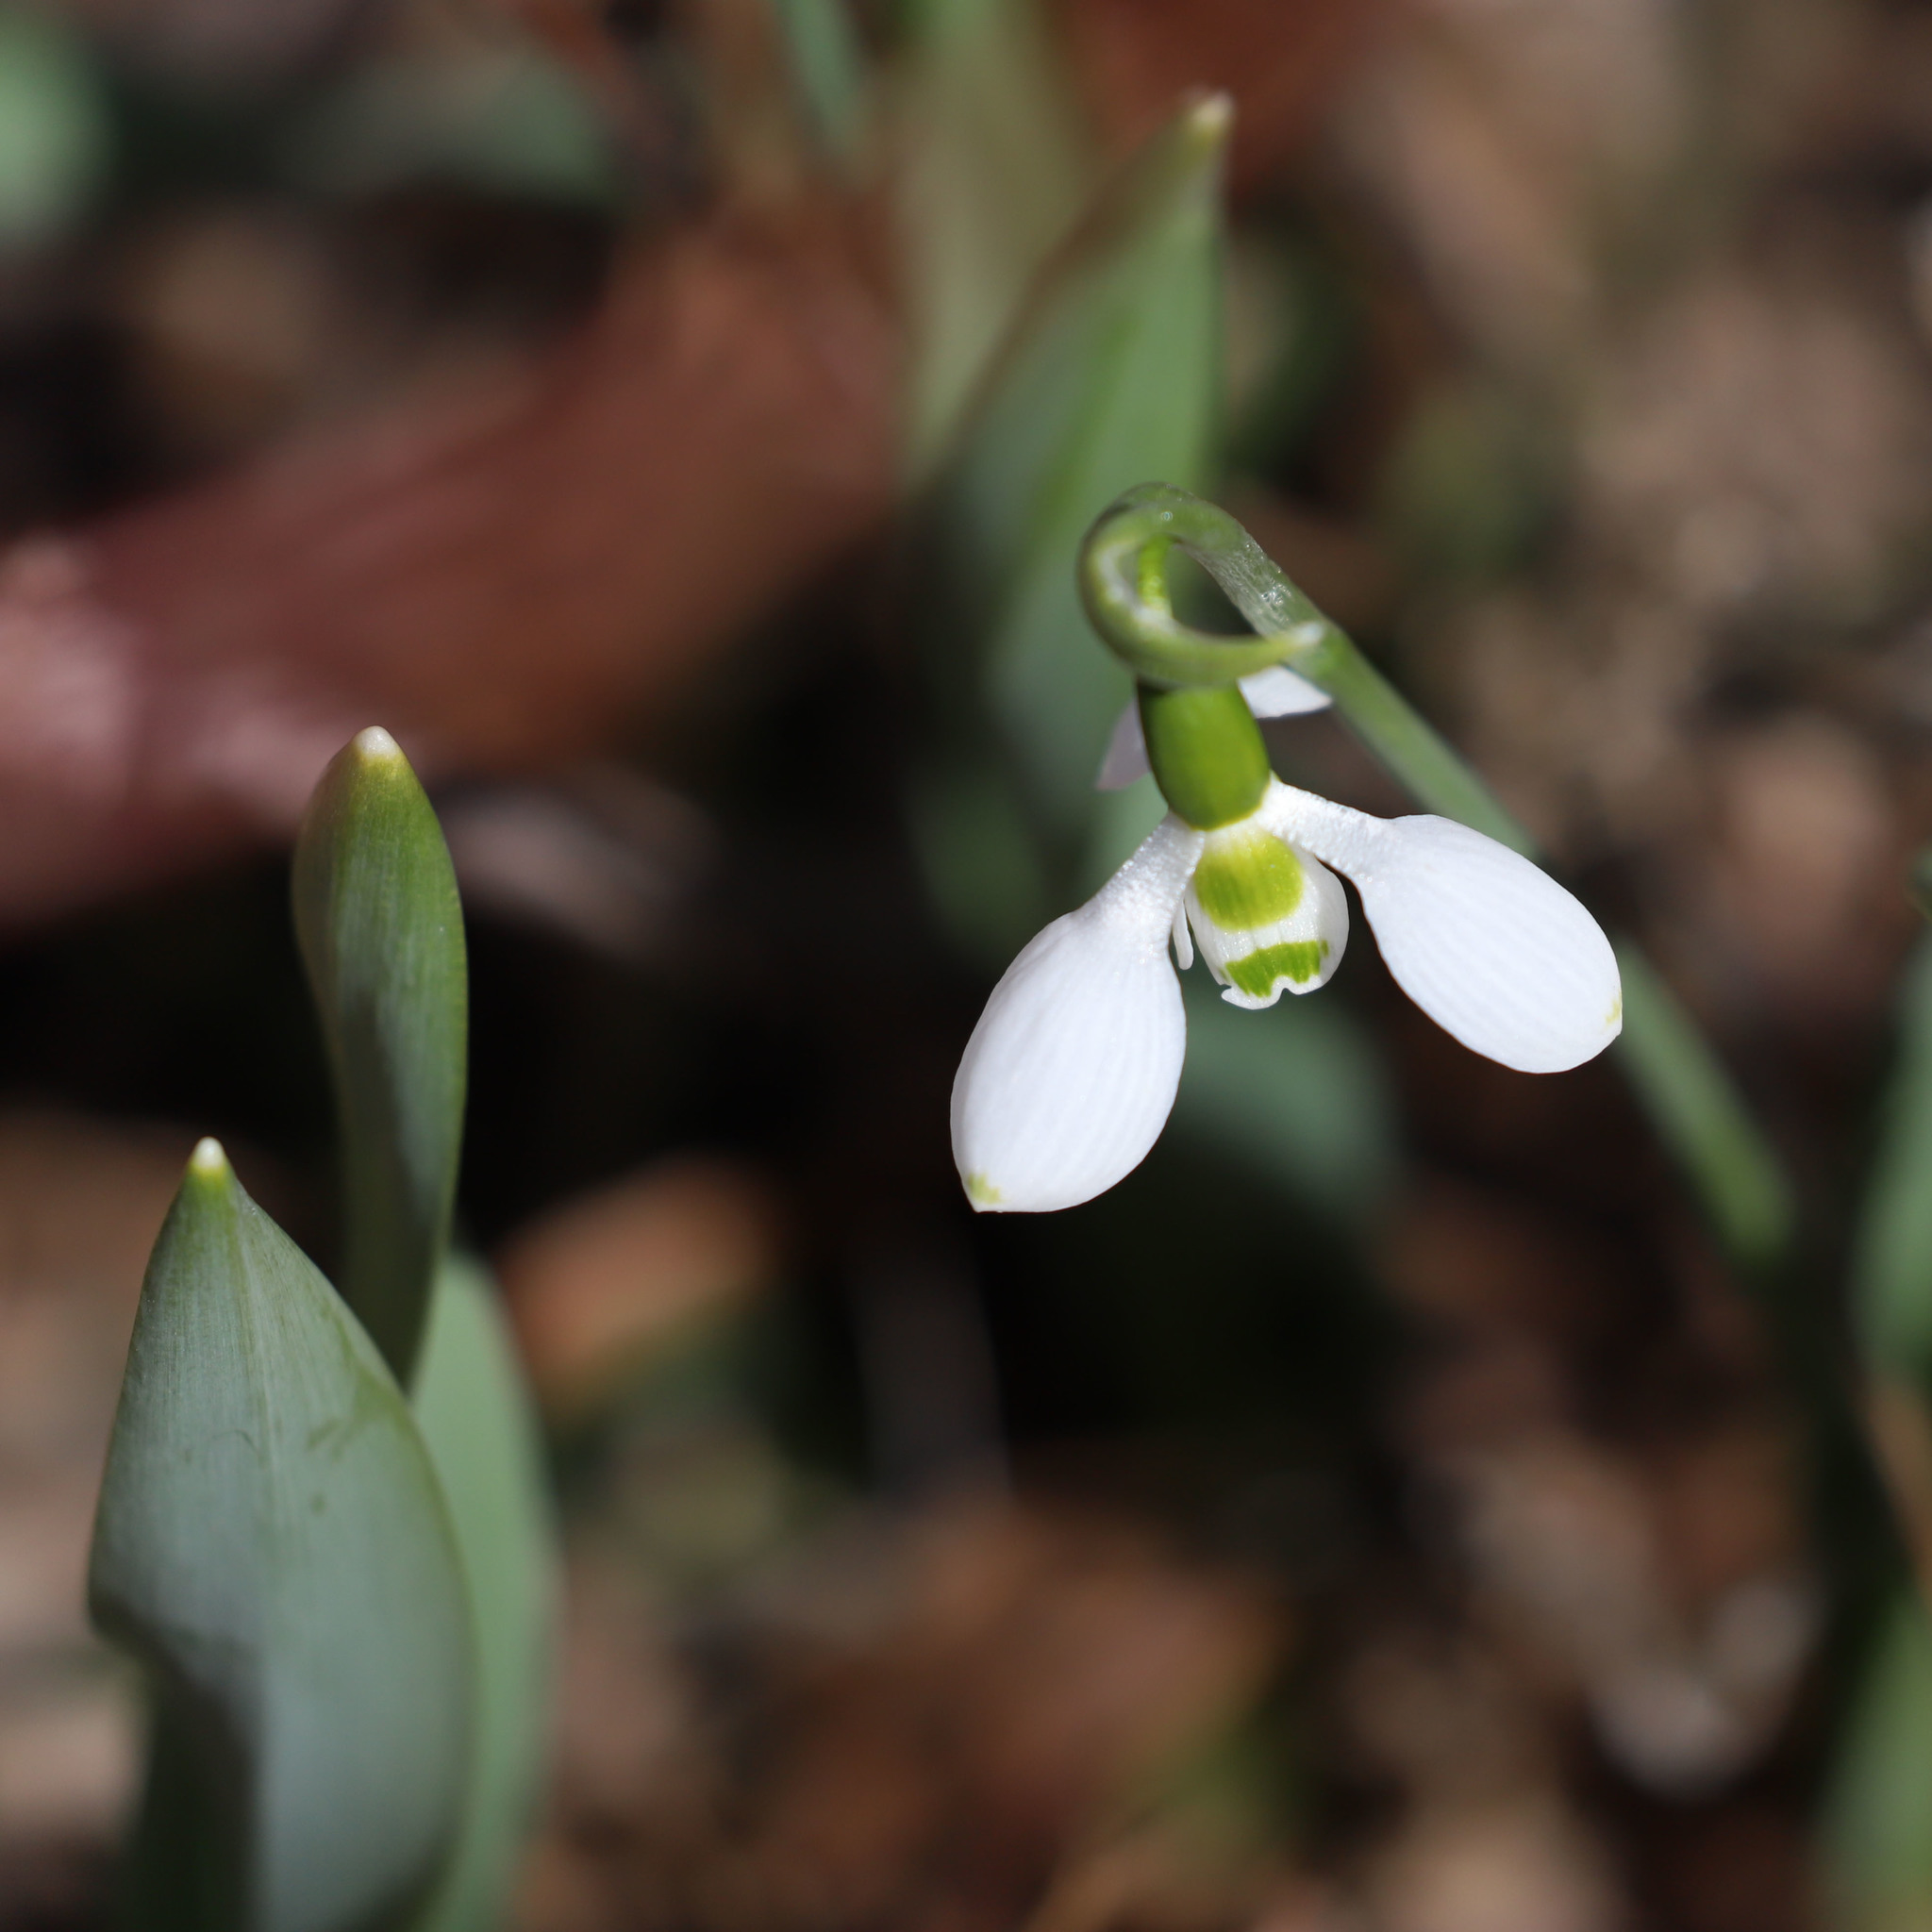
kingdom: Plantae
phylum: Tracheophyta
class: Liliopsida
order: Asparagales
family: Amaryllidaceae
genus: Galanthus
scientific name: Galanthus elwesii
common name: Greater snowdrop
